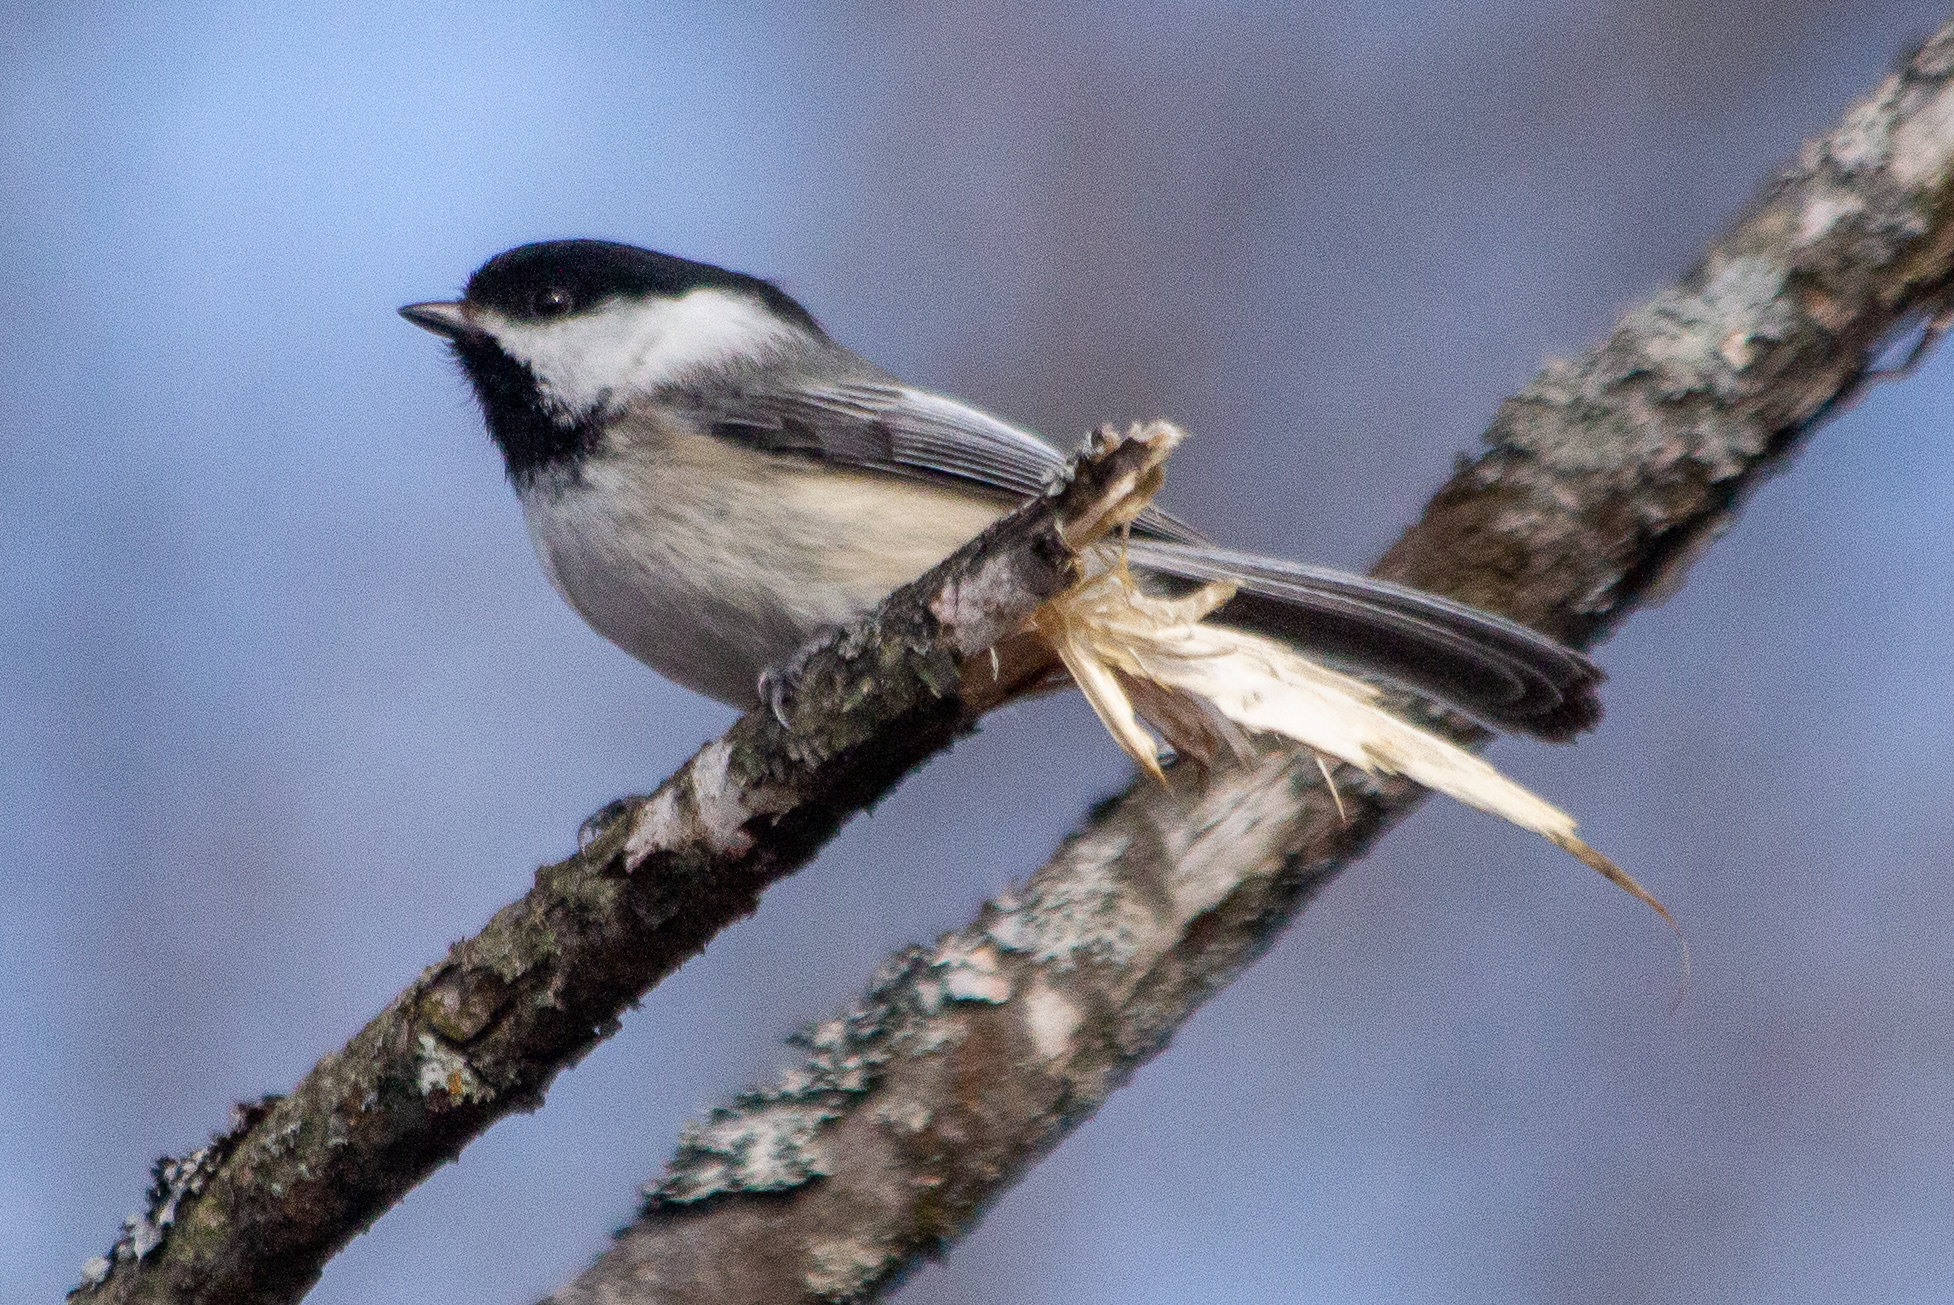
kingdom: Animalia
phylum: Chordata
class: Aves
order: Passeriformes
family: Paridae
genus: Poecile
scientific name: Poecile atricapillus
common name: Black-capped chickadee
